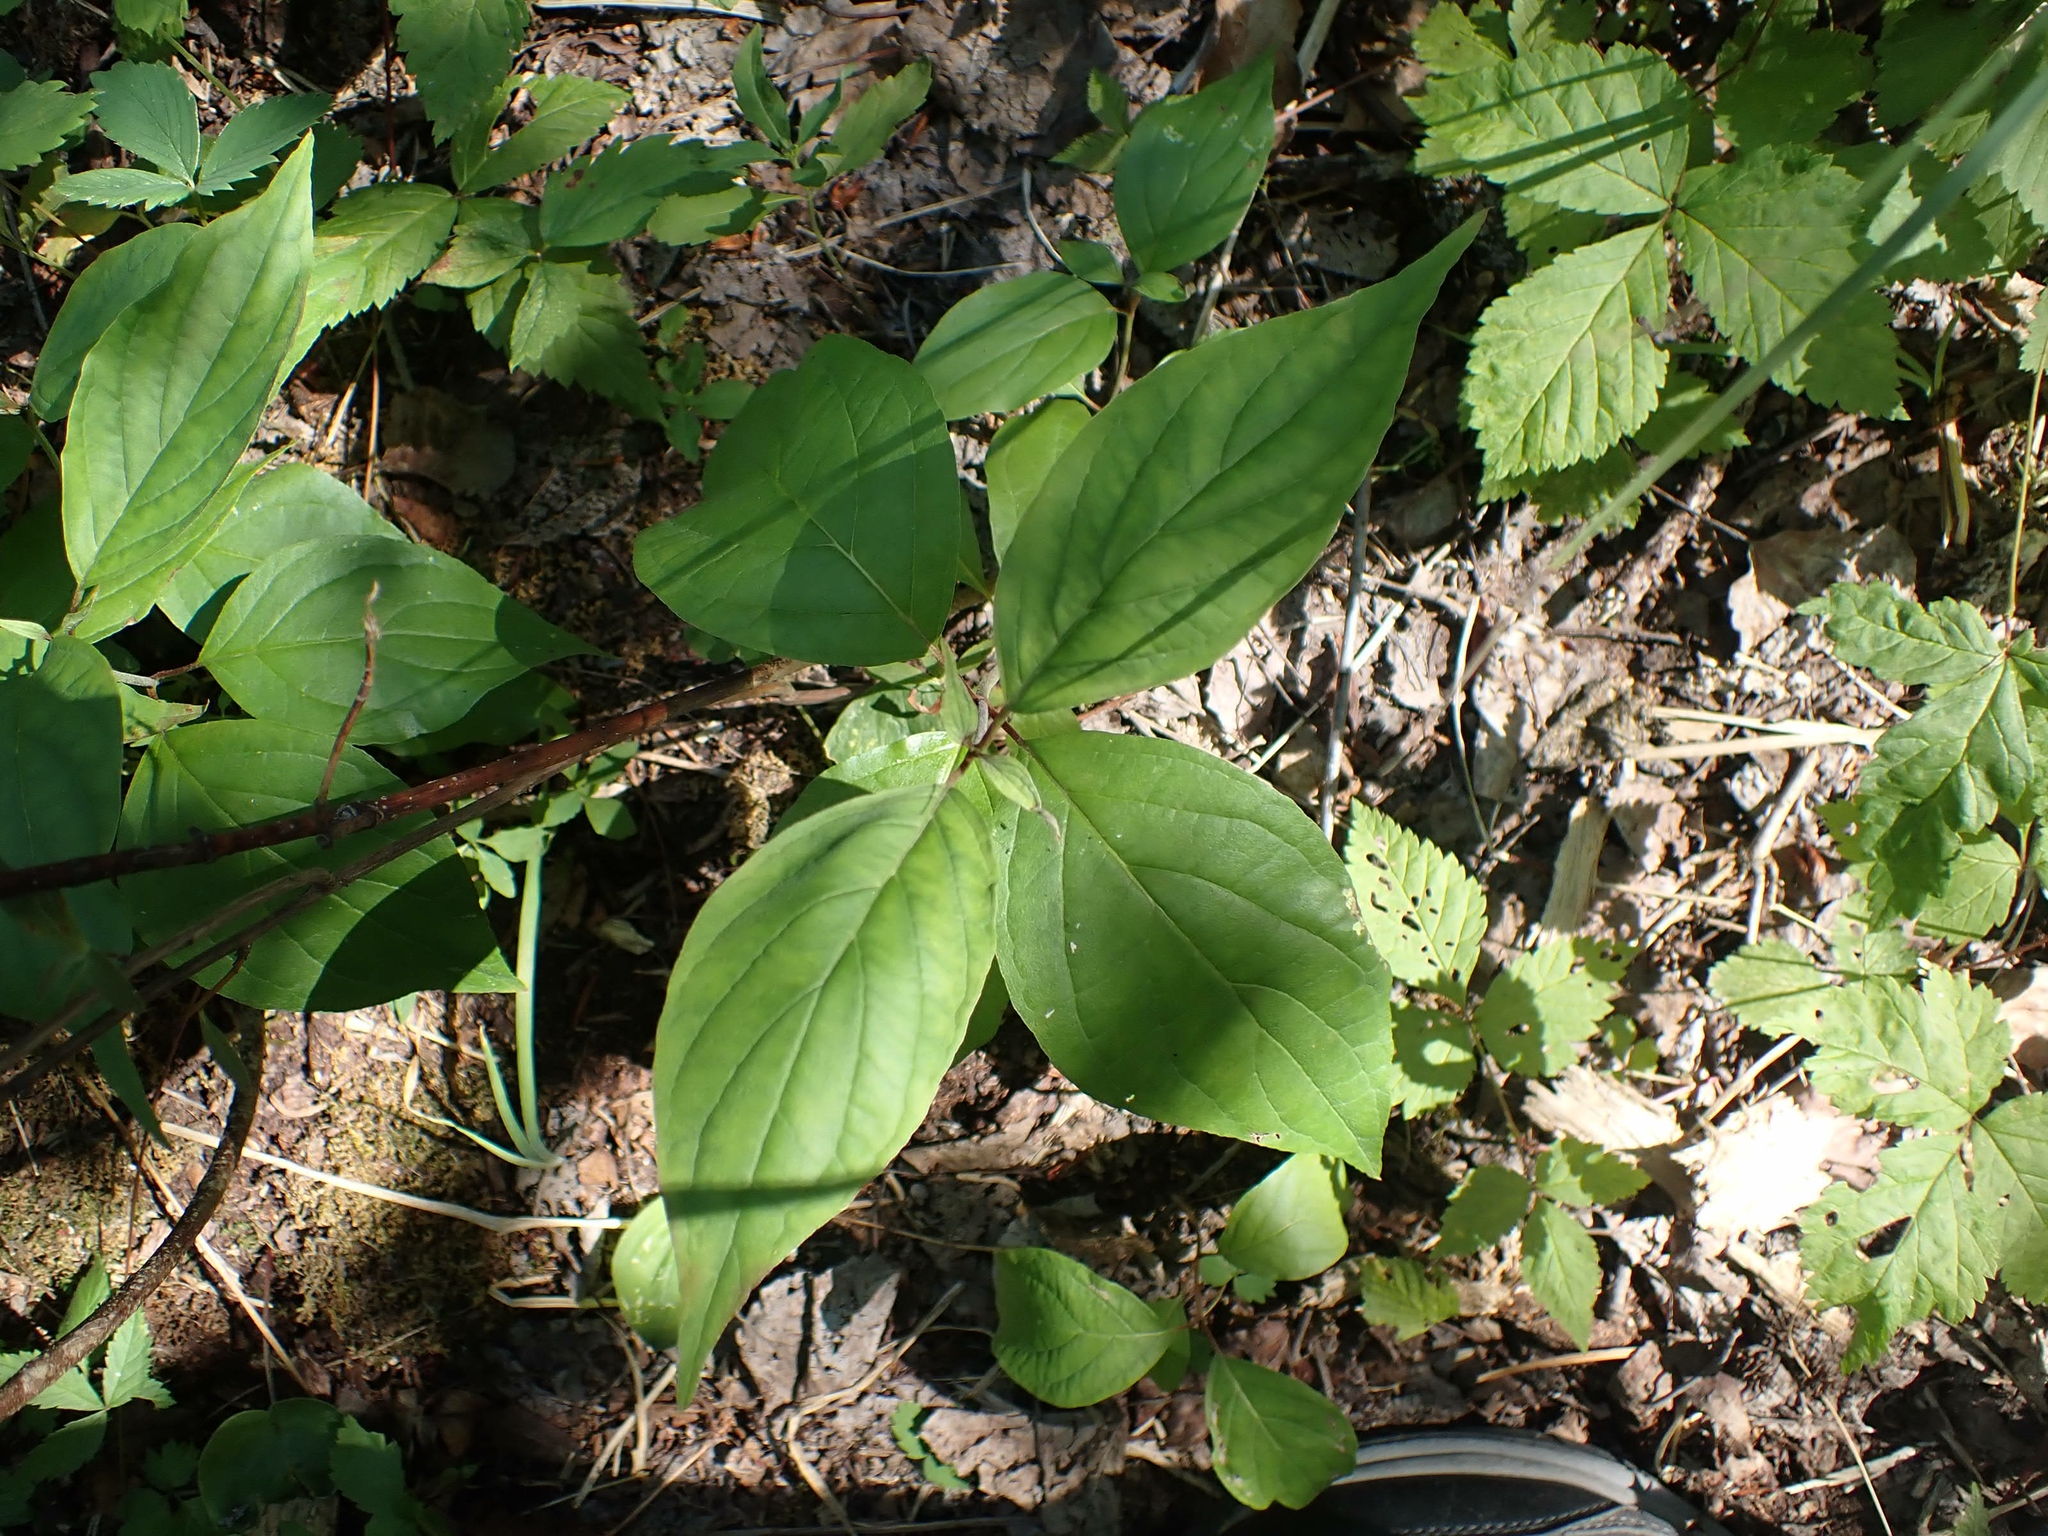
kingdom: Plantae
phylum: Tracheophyta
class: Magnoliopsida
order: Cornales
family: Cornaceae
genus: Cornus
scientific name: Cornus sericea
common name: Red-osier dogwood
